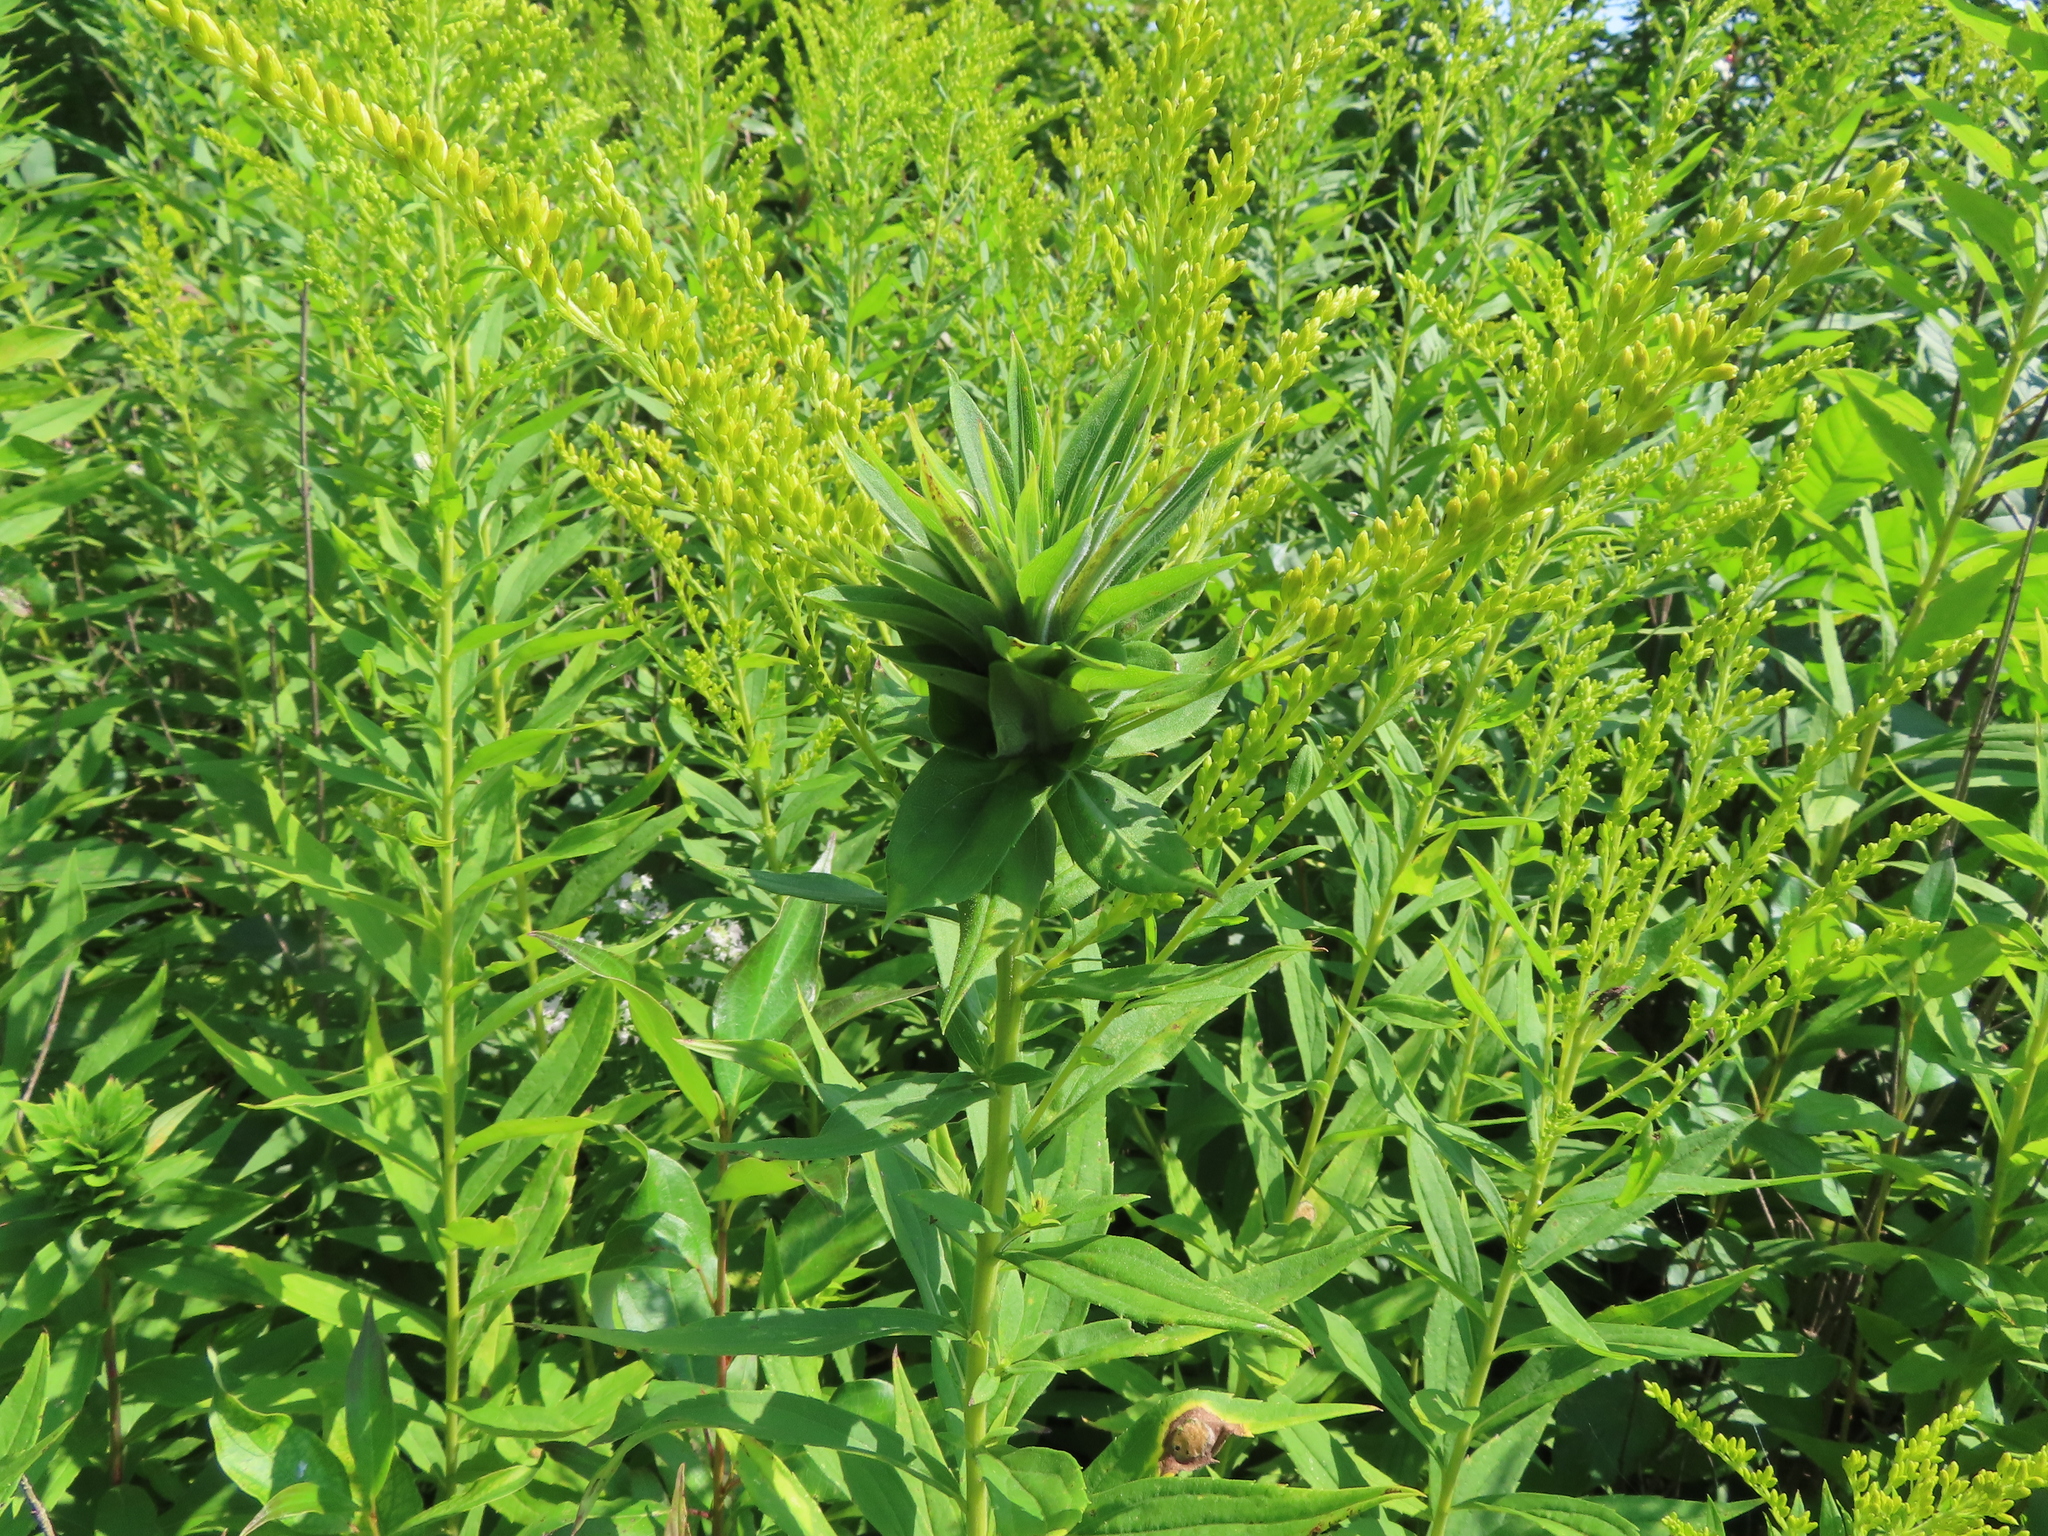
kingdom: Animalia
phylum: Arthropoda
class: Insecta
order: Diptera
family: Cecidomyiidae
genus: Rhopalomyia
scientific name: Rhopalomyia solidaginis
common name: Goldenrod bunch gall midge
